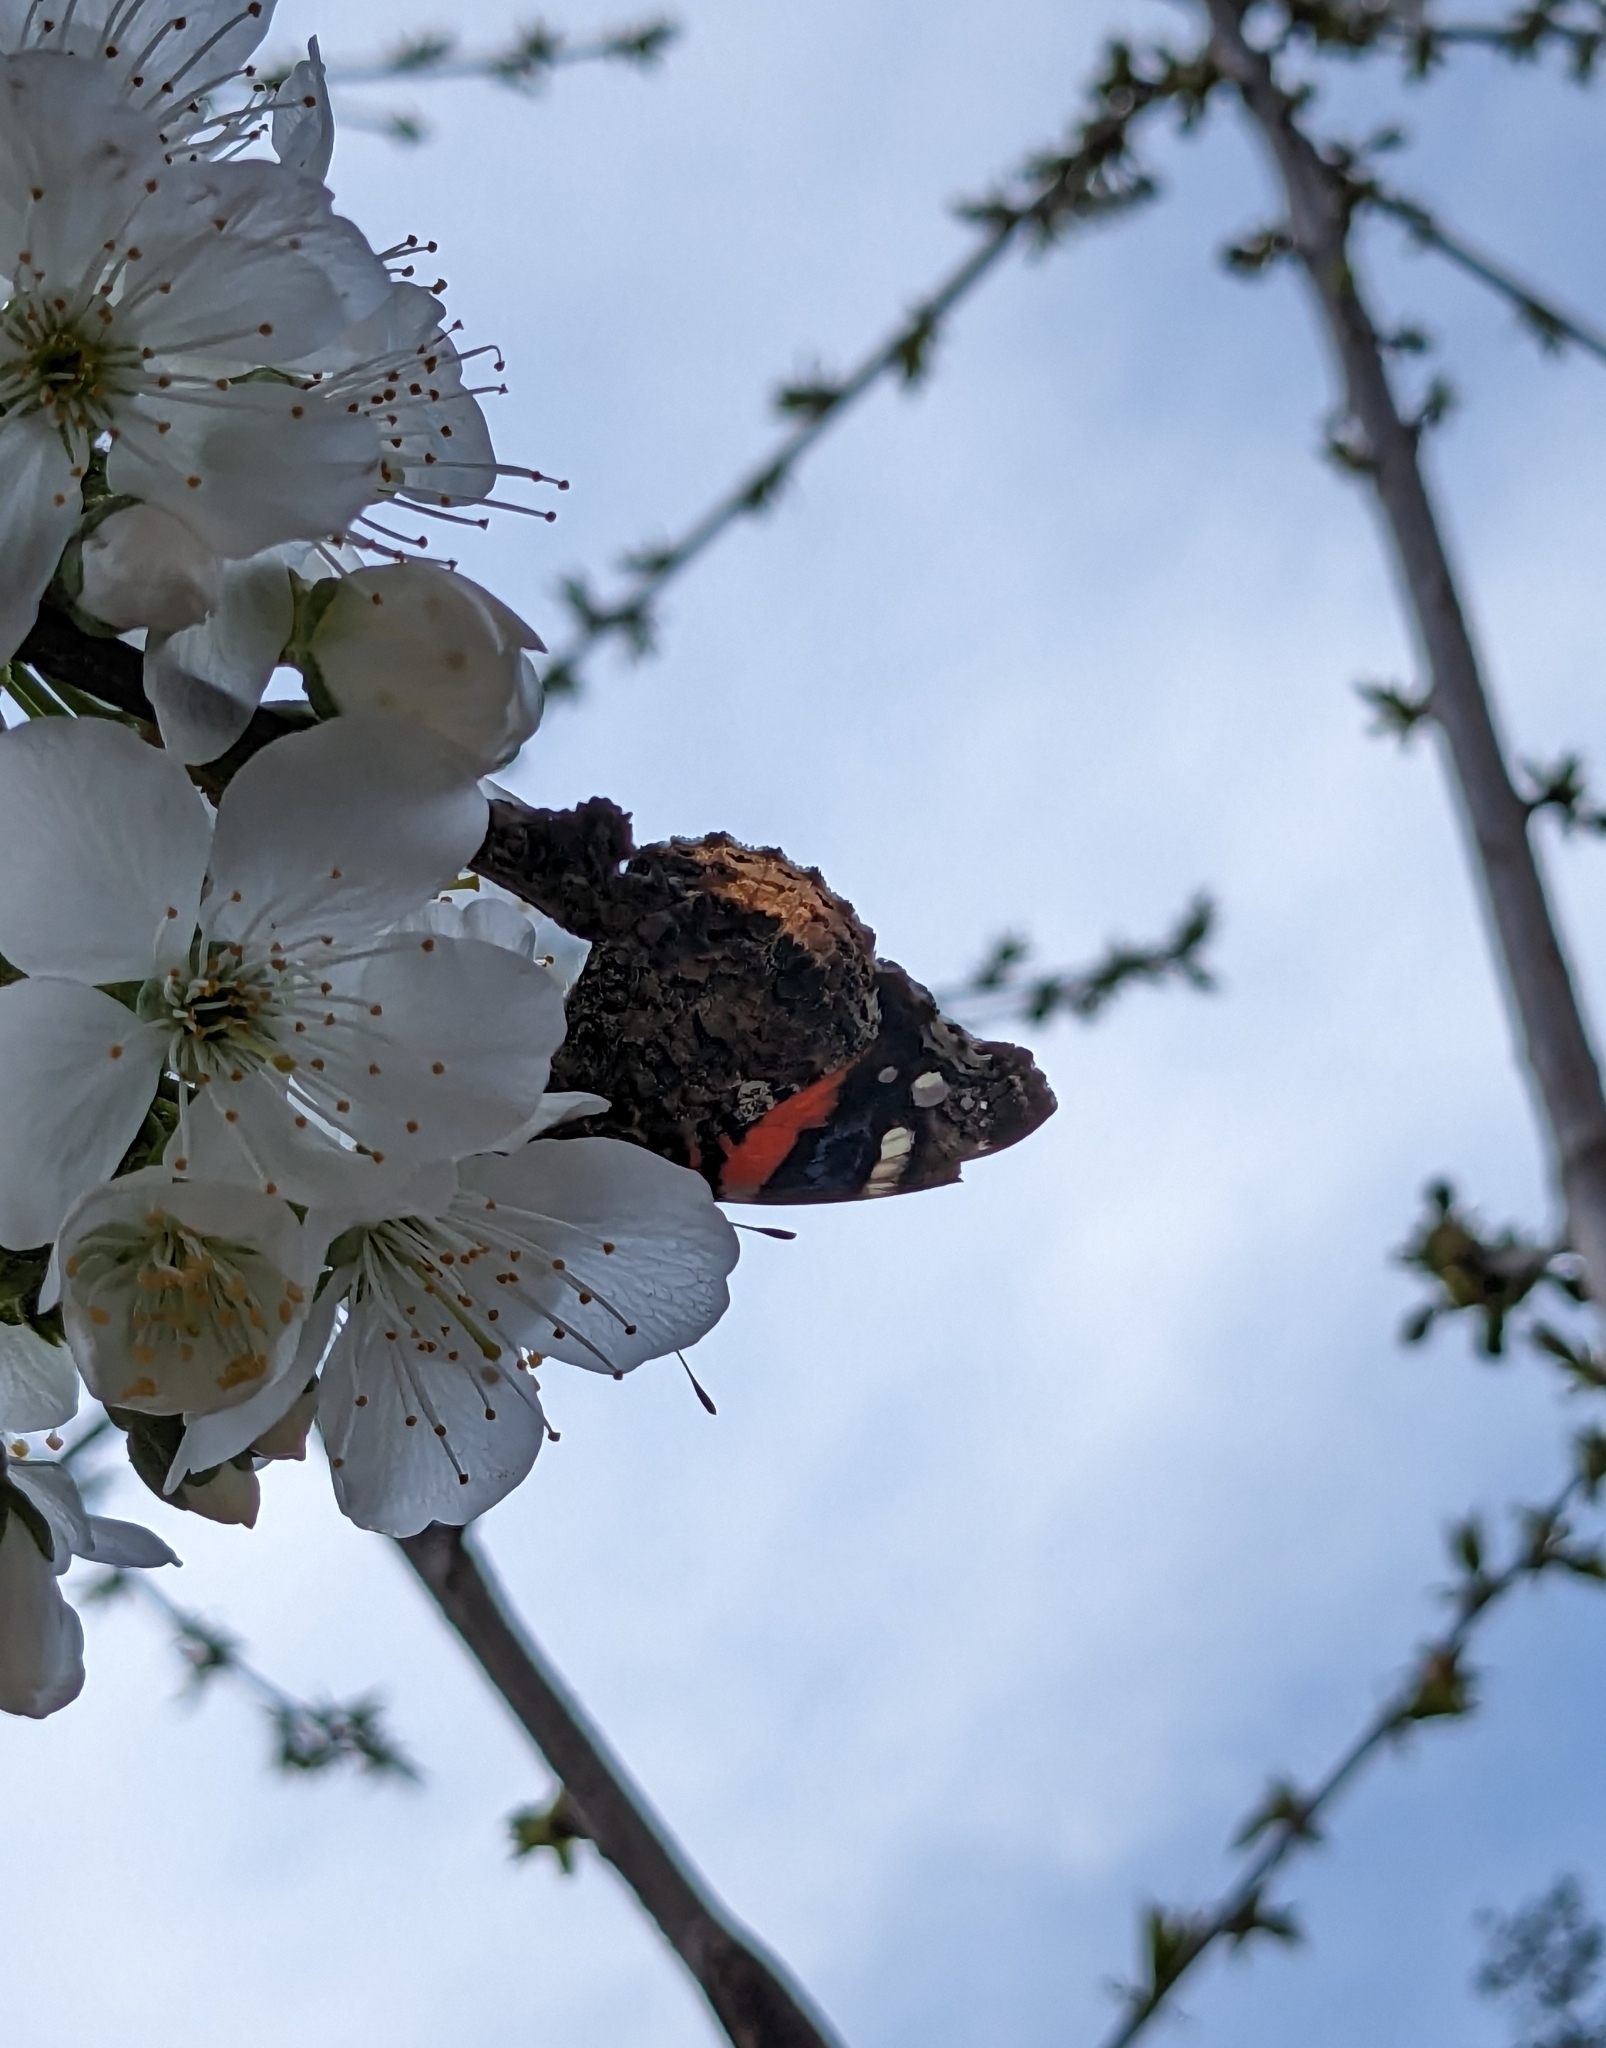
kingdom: Animalia
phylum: Arthropoda
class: Insecta
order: Lepidoptera
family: Nymphalidae
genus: Vanessa
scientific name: Vanessa atalanta
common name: Red admiral
